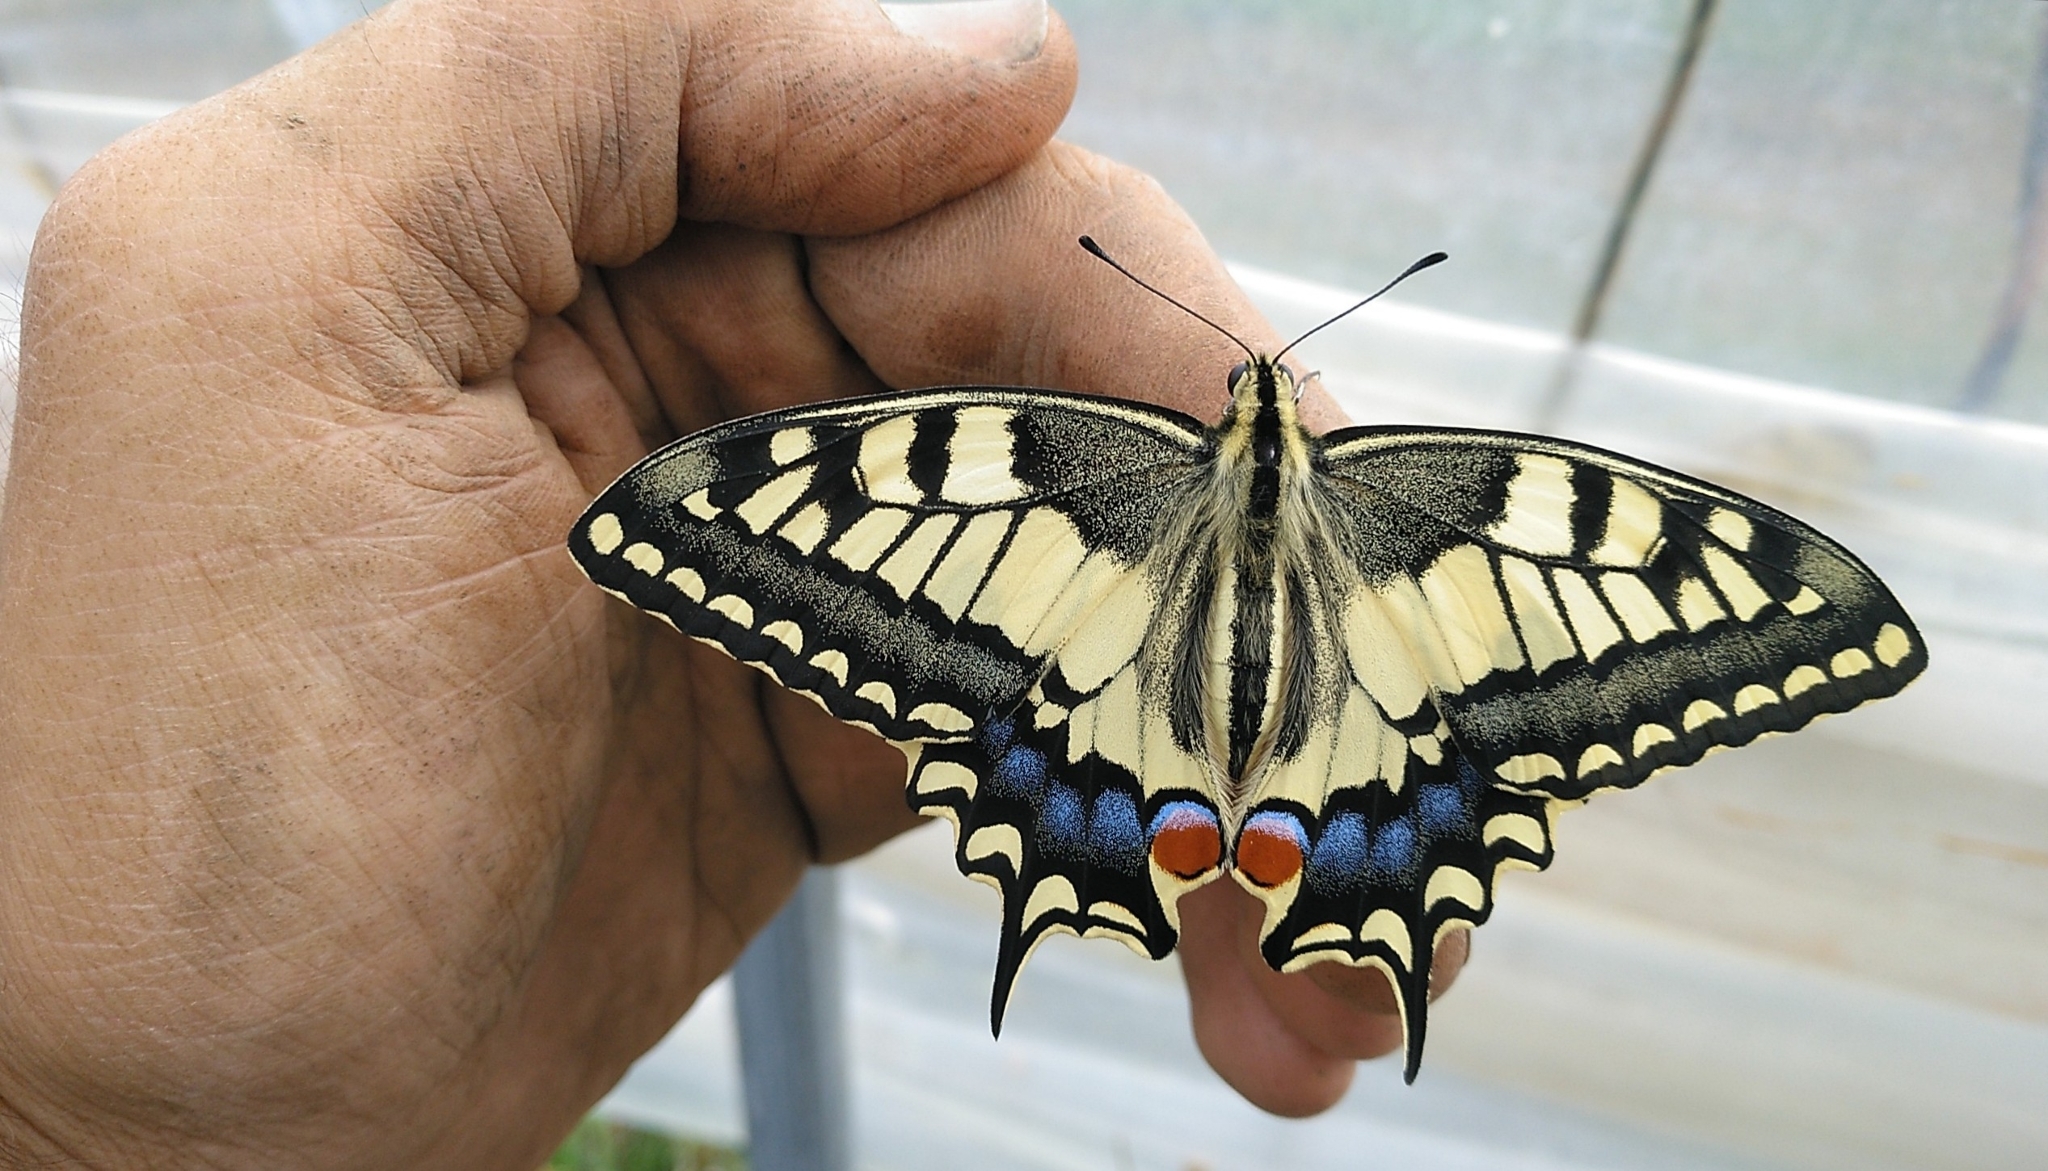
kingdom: Animalia
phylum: Arthropoda
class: Insecta
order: Lepidoptera
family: Papilionidae
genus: Papilio
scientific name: Papilio machaon
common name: Swallowtail
